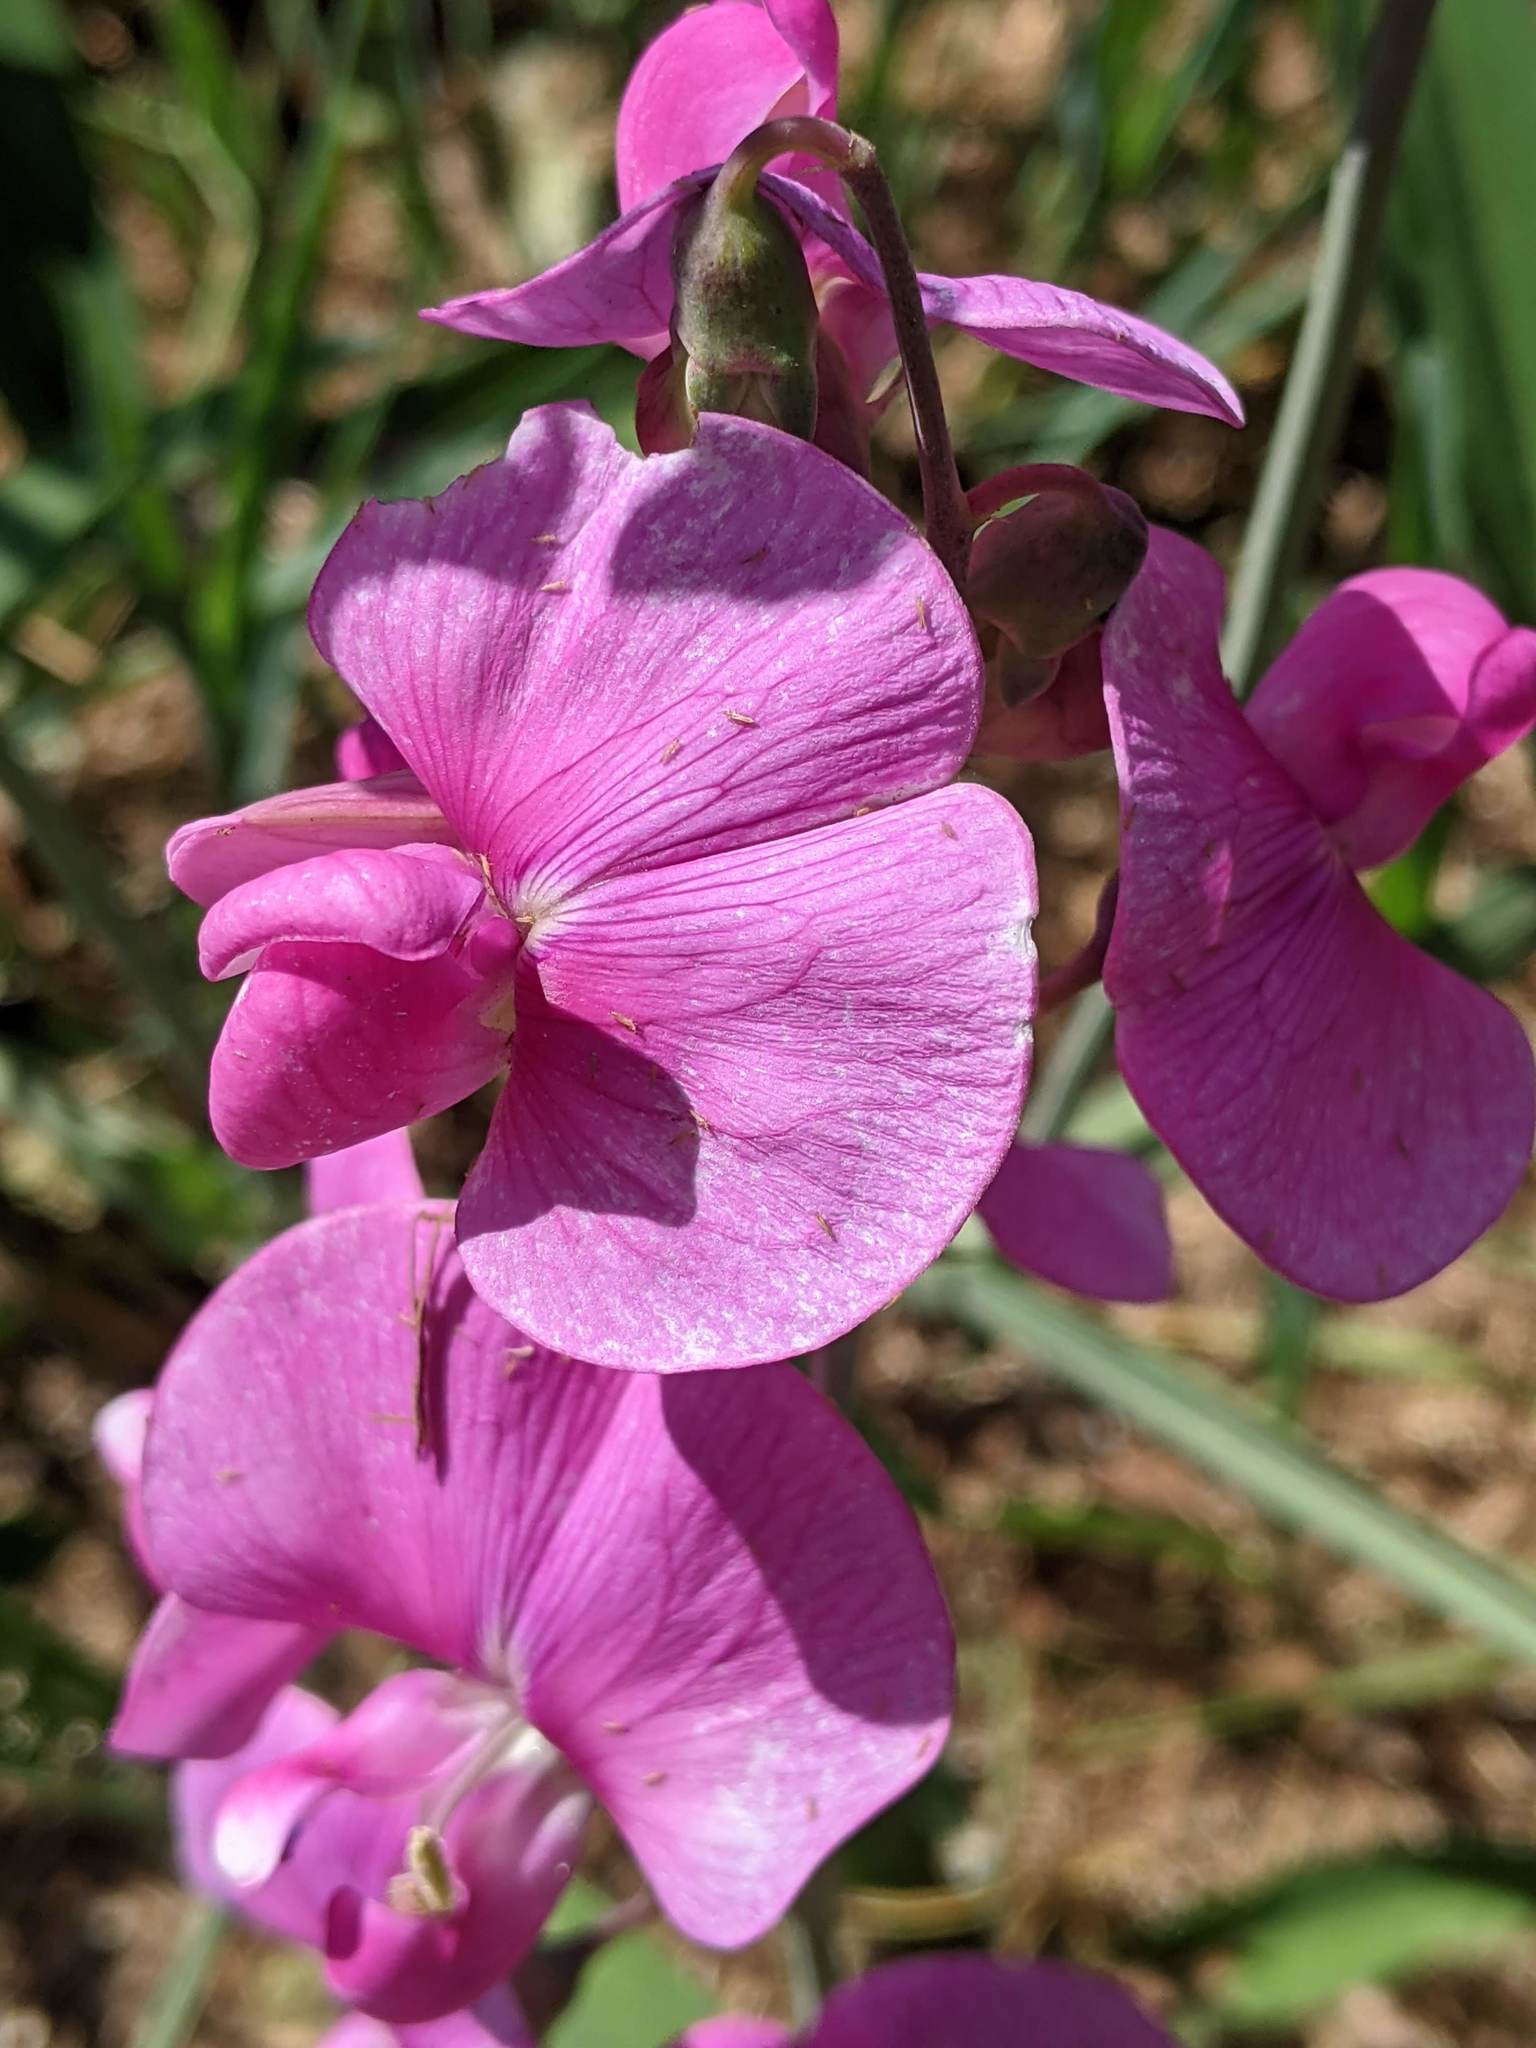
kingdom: Plantae
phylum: Tracheophyta
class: Magnoliopsida
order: Fabales
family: Fabaceae
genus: Lathyrus
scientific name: Lathyrus latifolius
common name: Perennial pea
